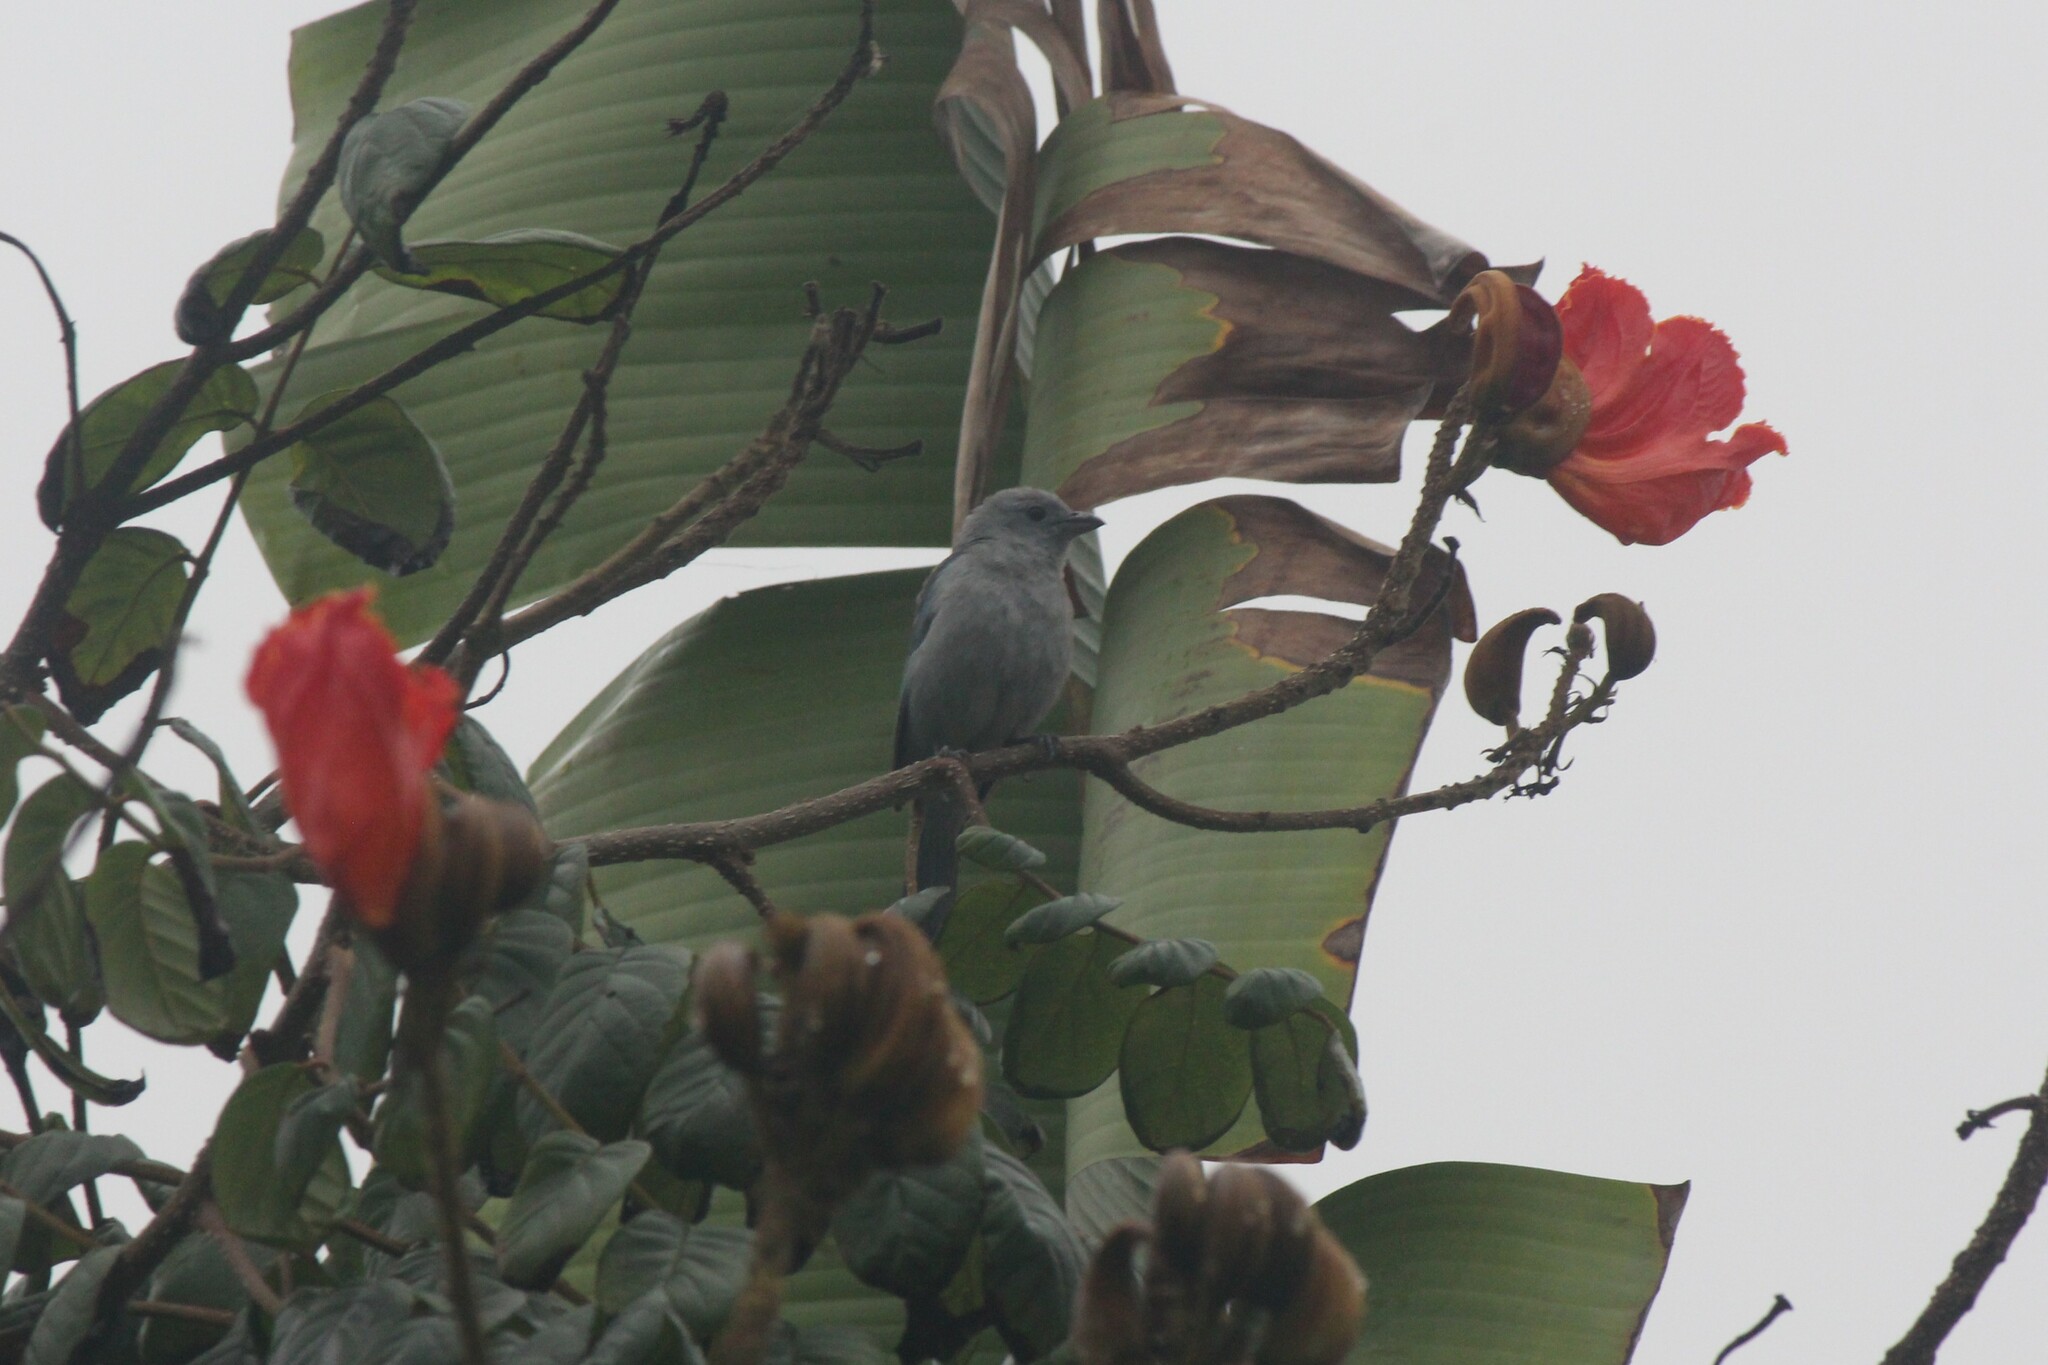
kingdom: Animalia
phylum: Chordata
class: Aves
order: Passeriformes
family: Thraupidae
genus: Thraupis
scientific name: Thraupis episcopus
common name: Blue-grey tanager
